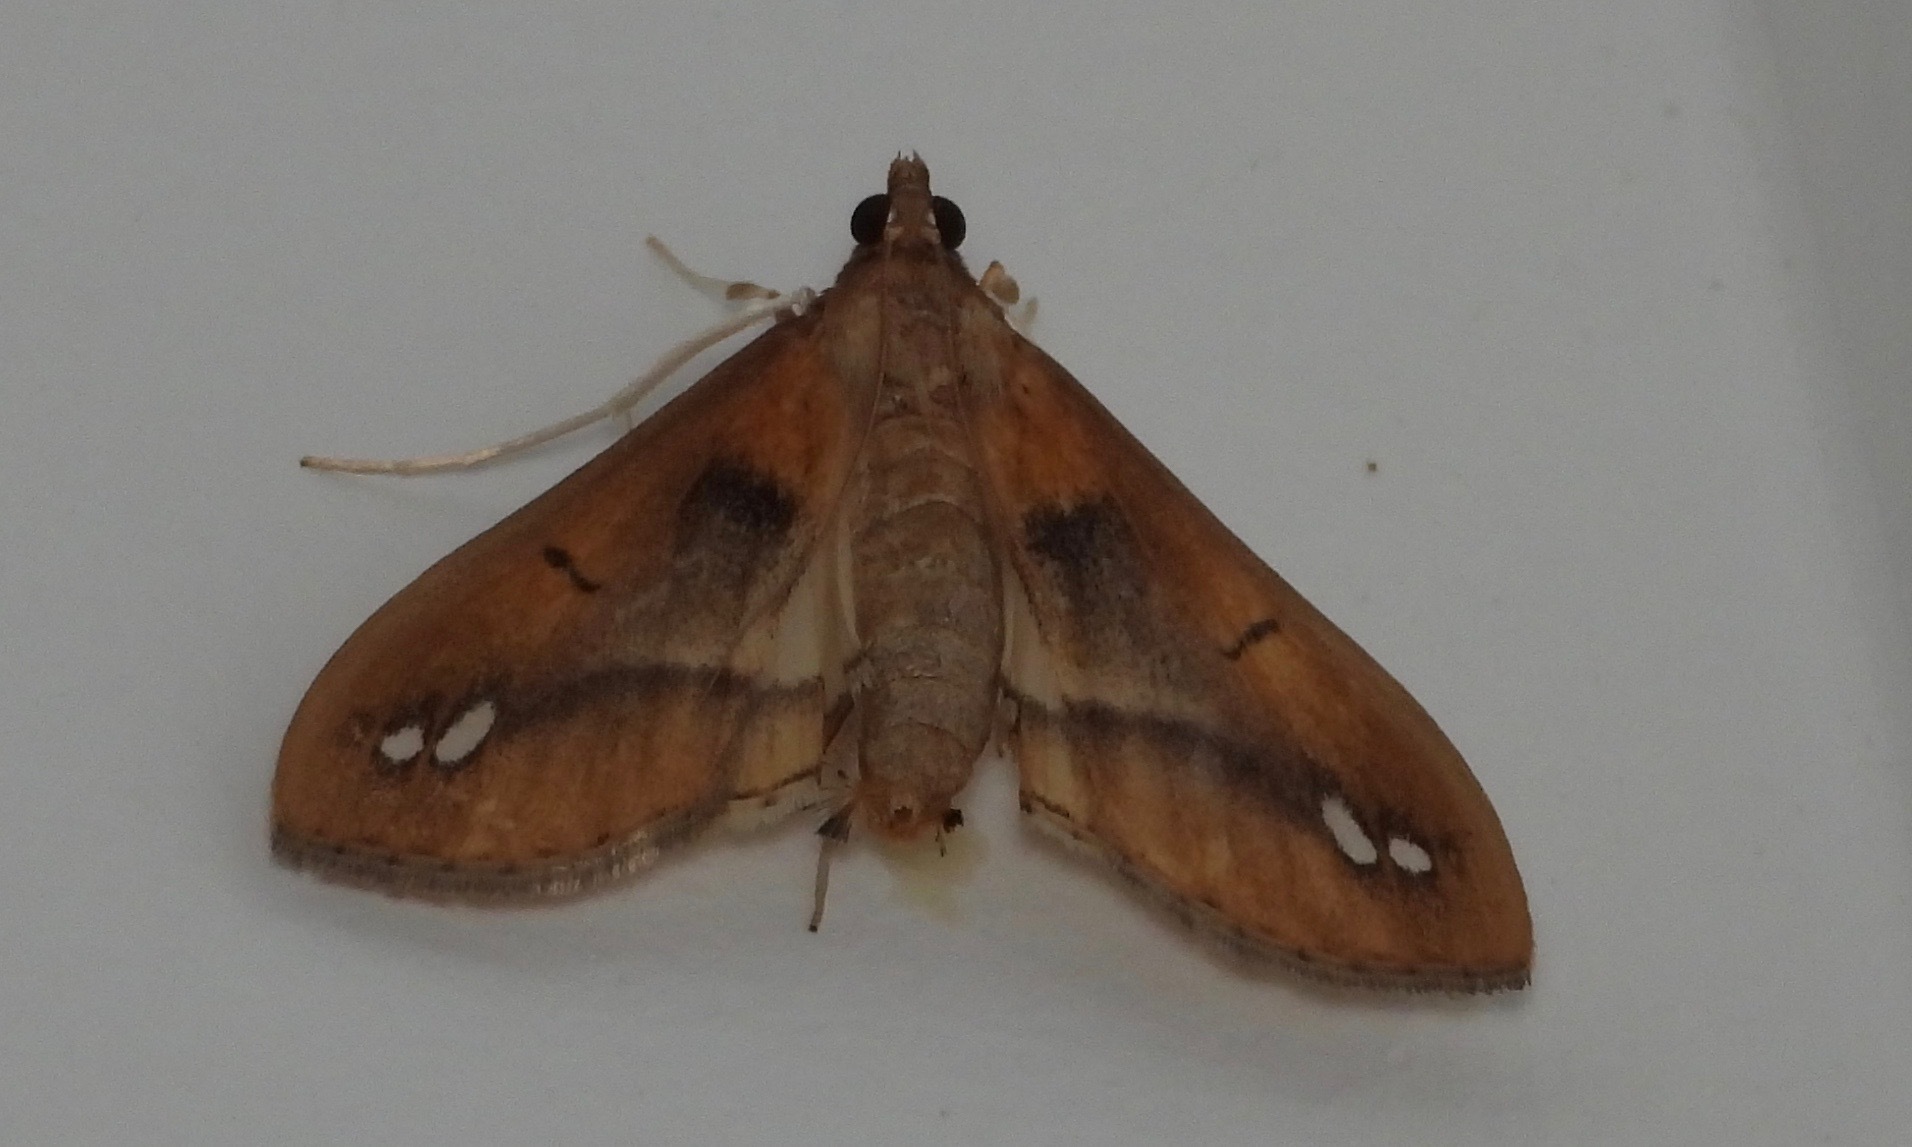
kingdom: Animalia
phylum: Arthropoda
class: Insecta
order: Lepidoptera
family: Crambidae
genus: Diaphania
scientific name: Diaphania
